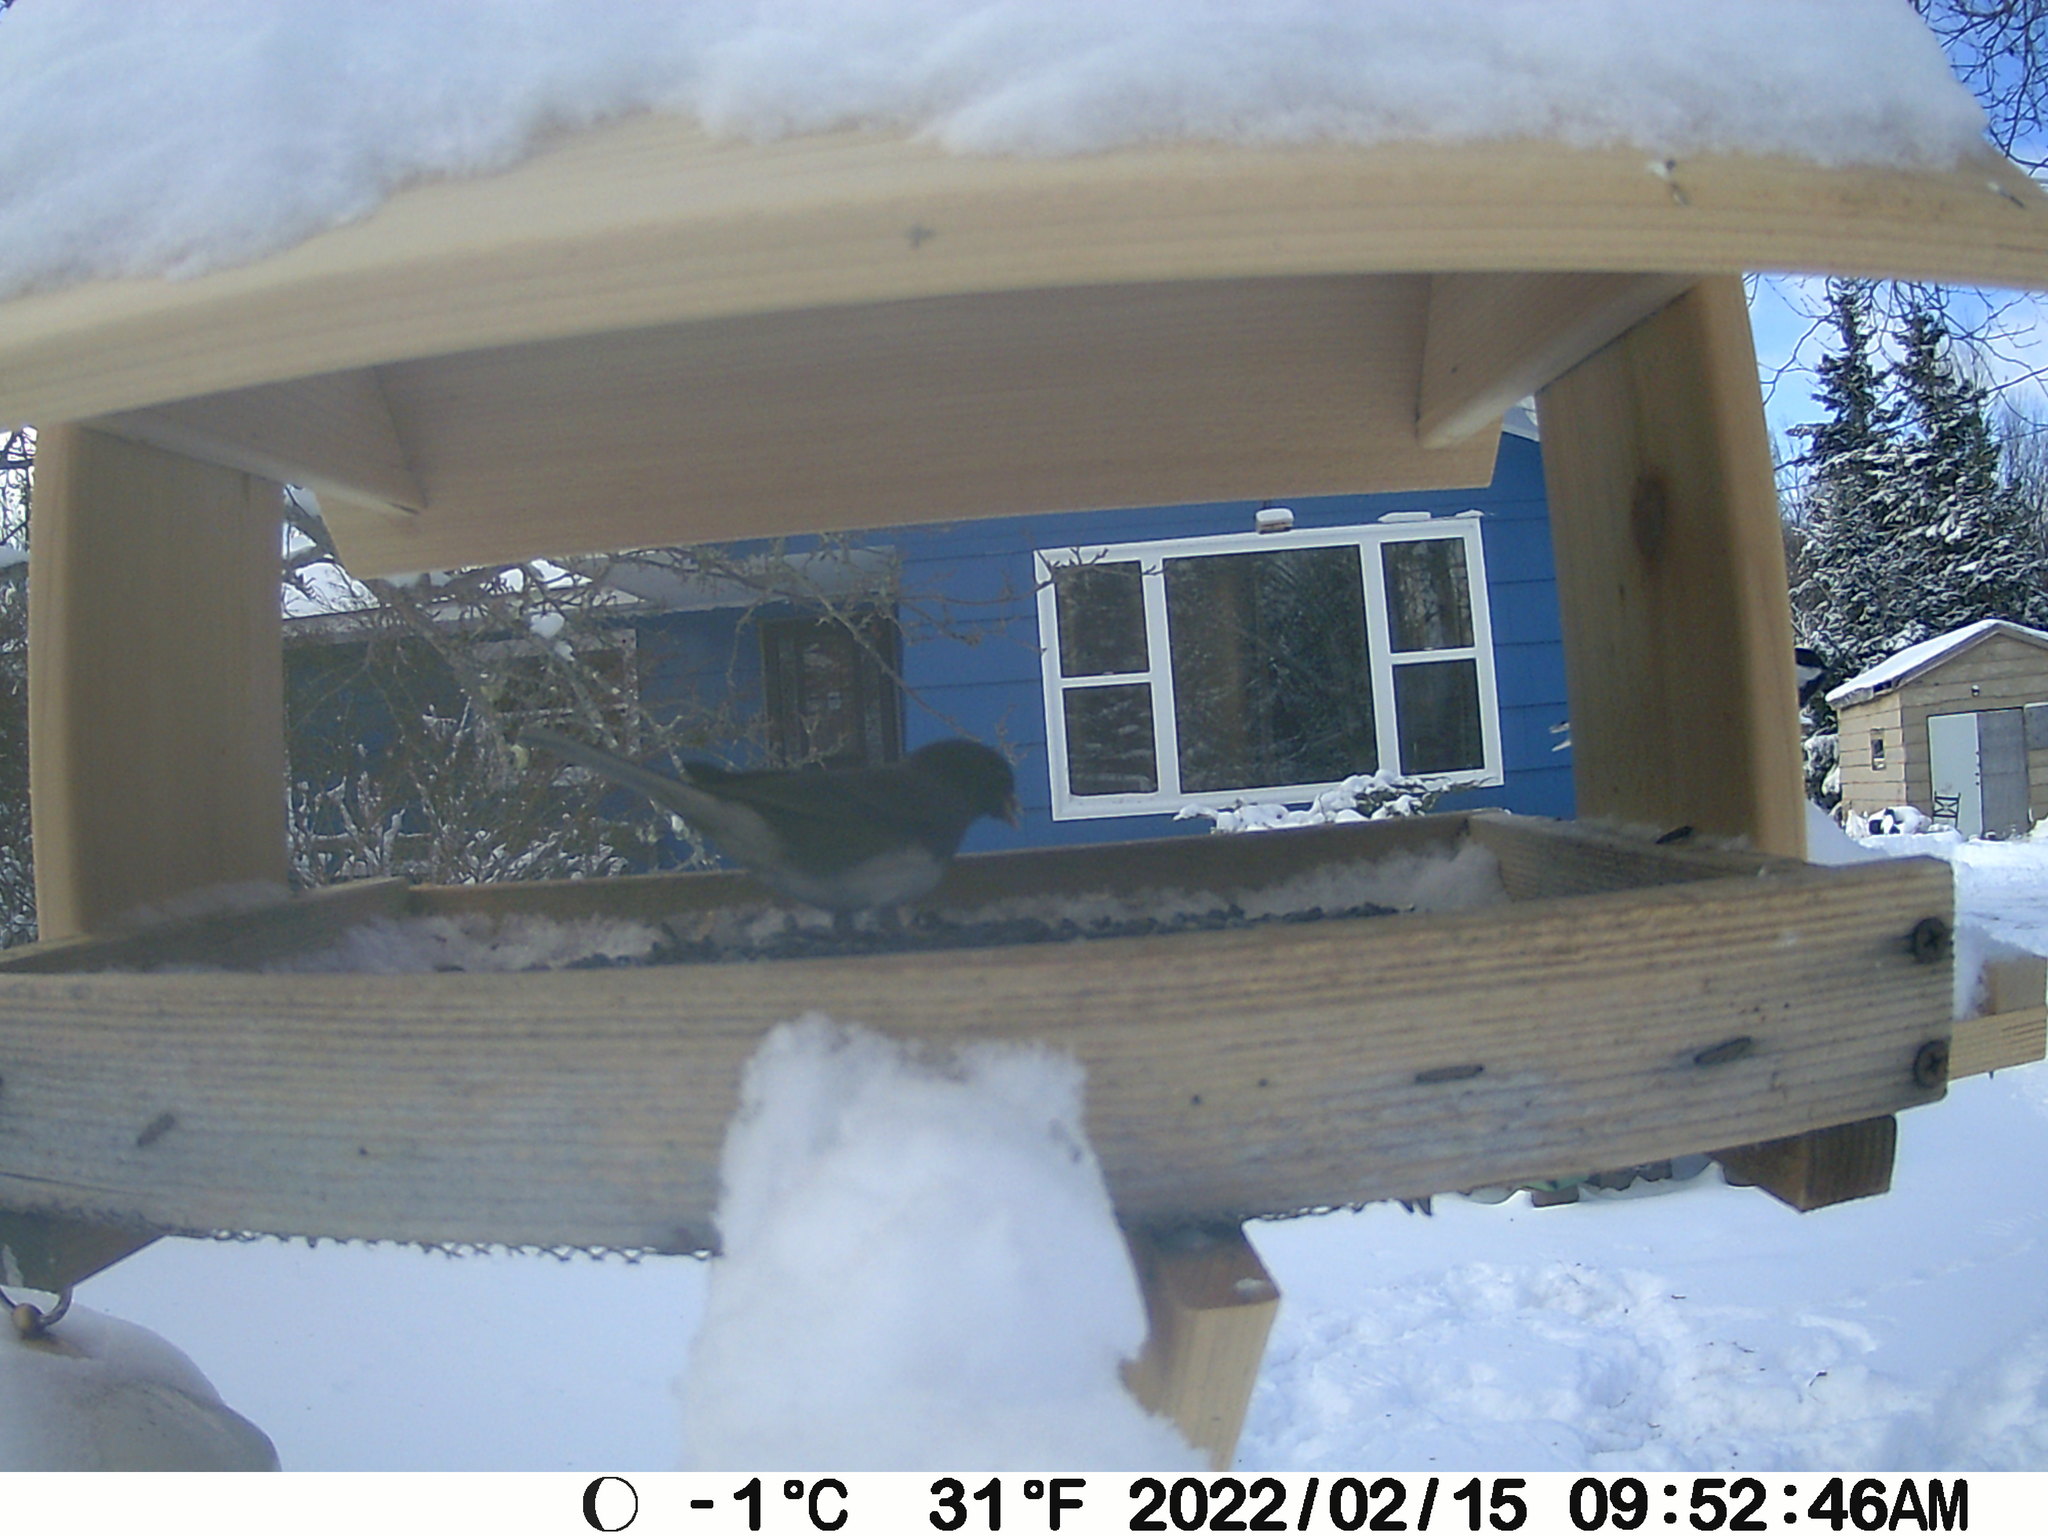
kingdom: Animalia
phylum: Chordata
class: Aves
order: Passeriformes
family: Passerellidae
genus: Junco
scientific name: Junco hyemalis
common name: Dark-eyed junco
